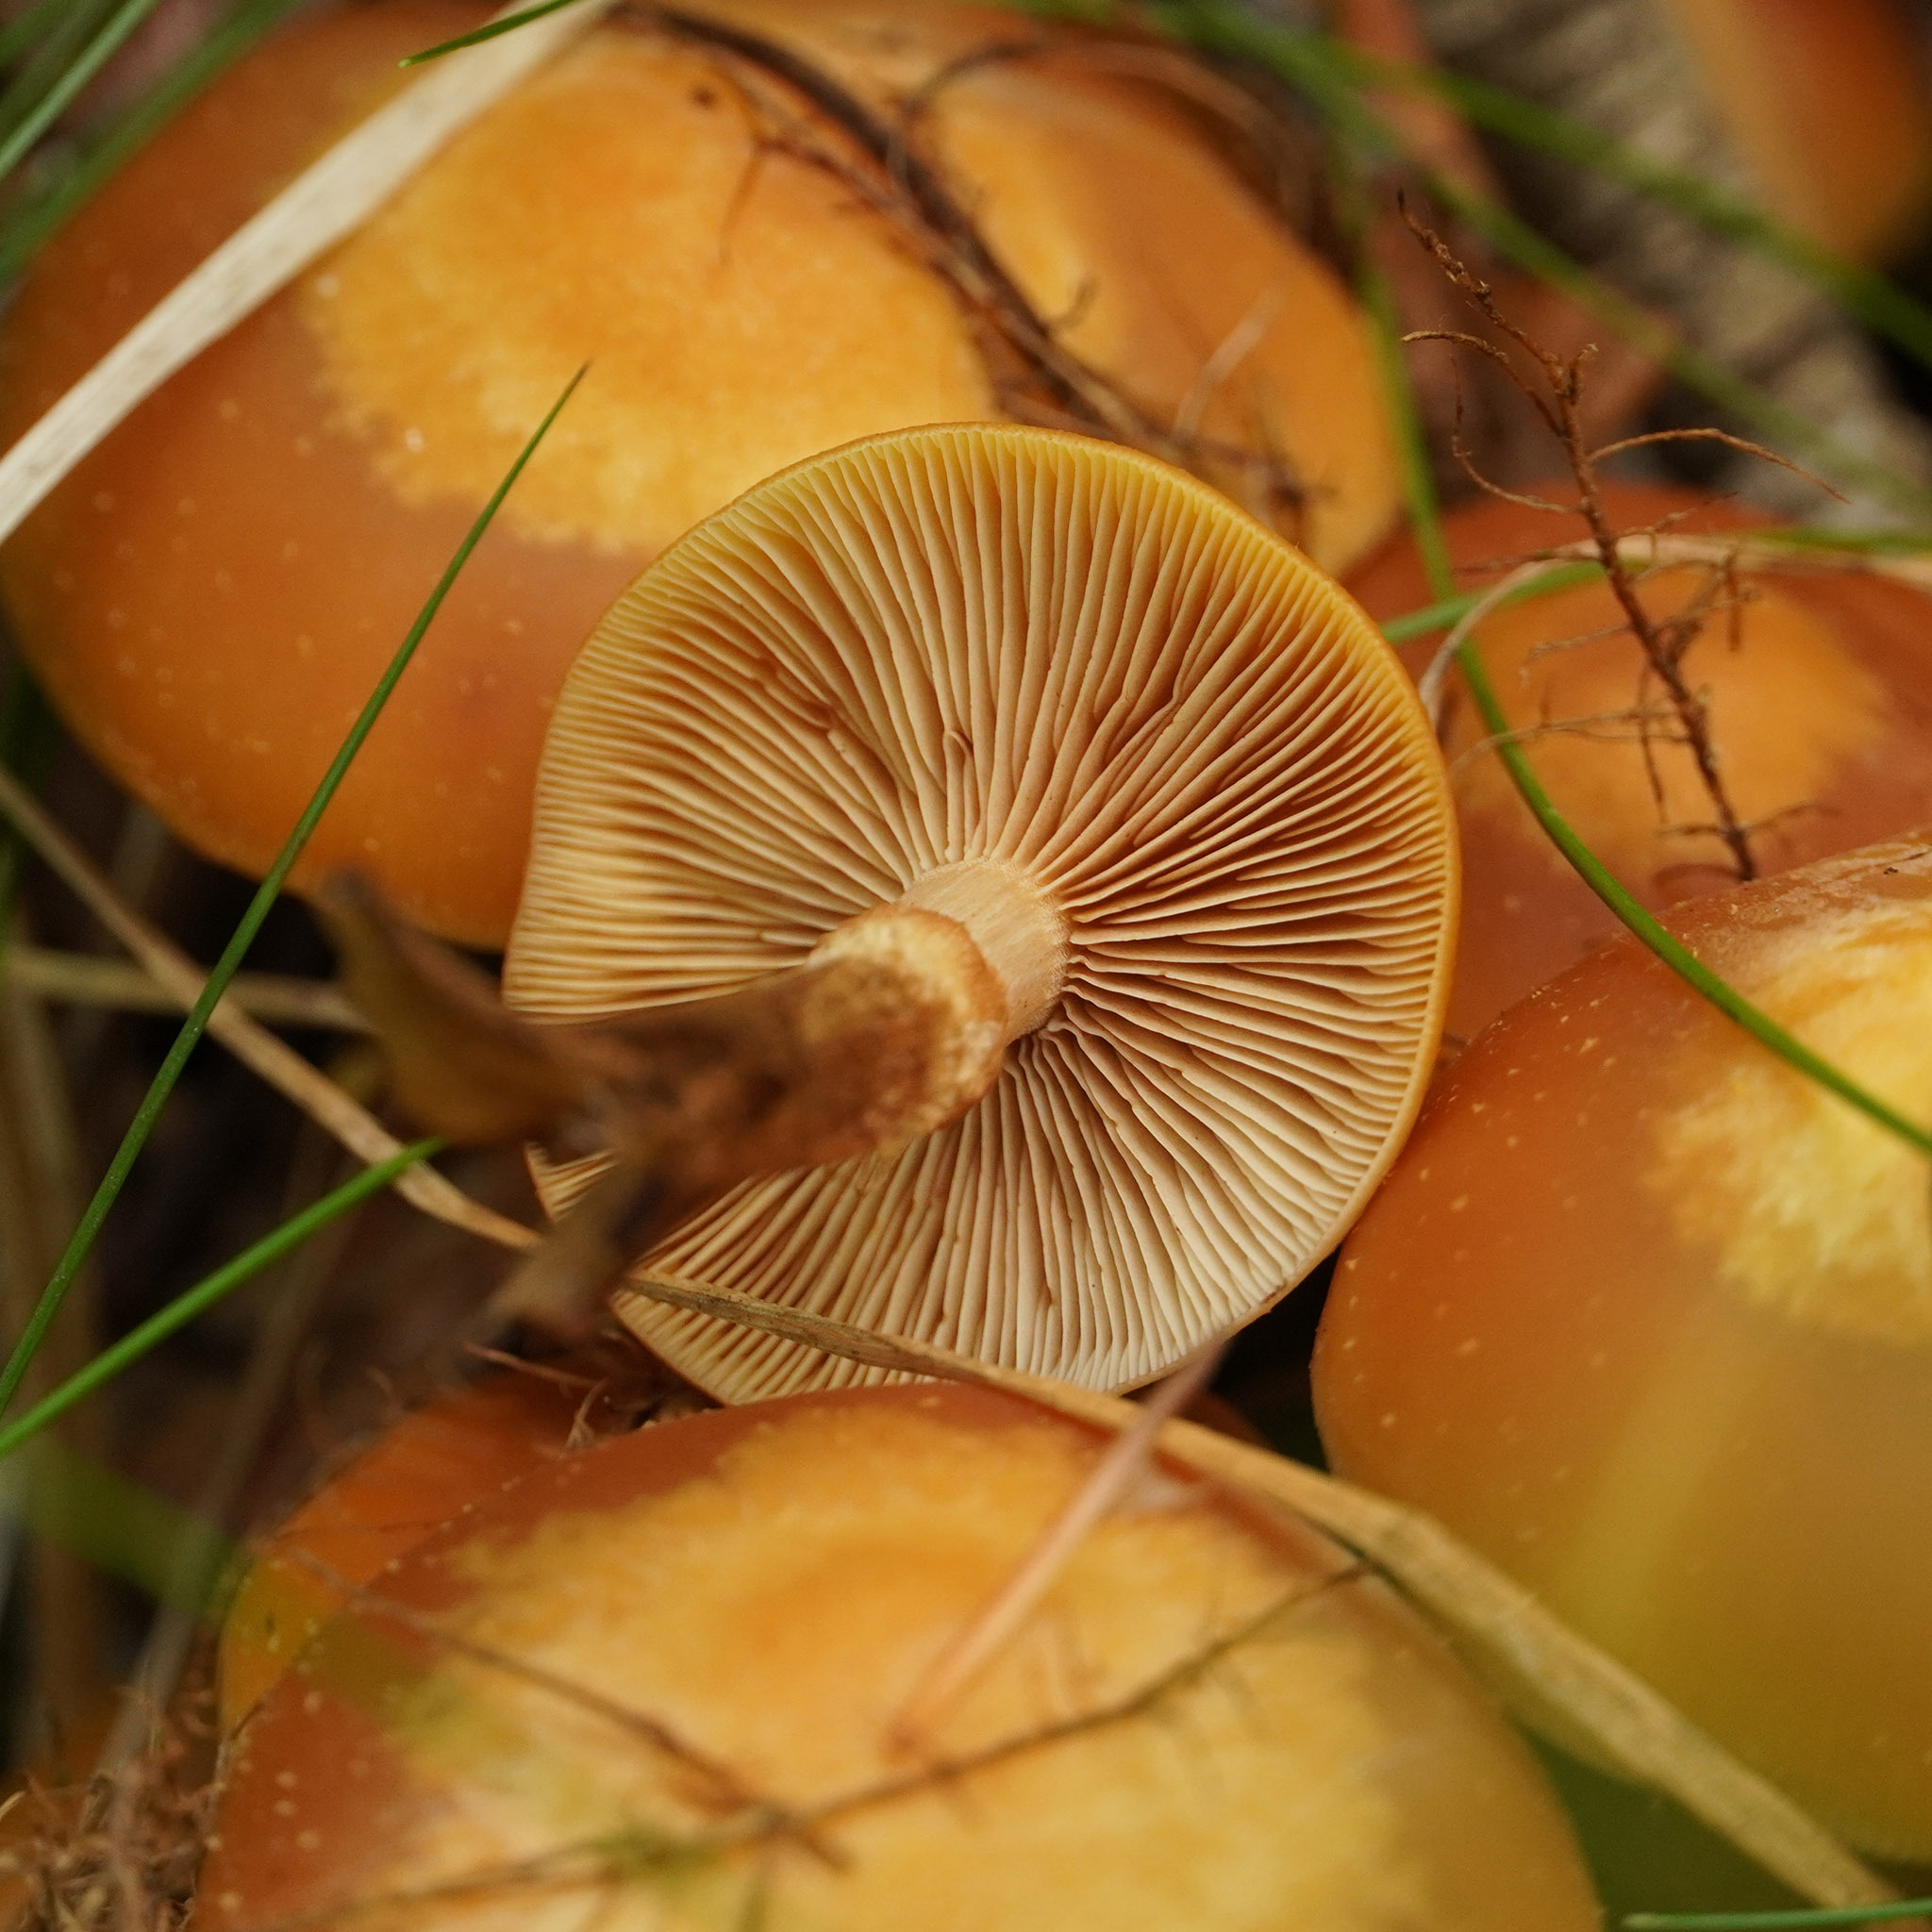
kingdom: Fungi
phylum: Basidiomycota
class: Agaricomycetes
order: Agaricales
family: Strophariaceae
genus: Kuehneromyces
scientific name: Kuehneromyces mutabilis
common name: Sheathed woodtuft
